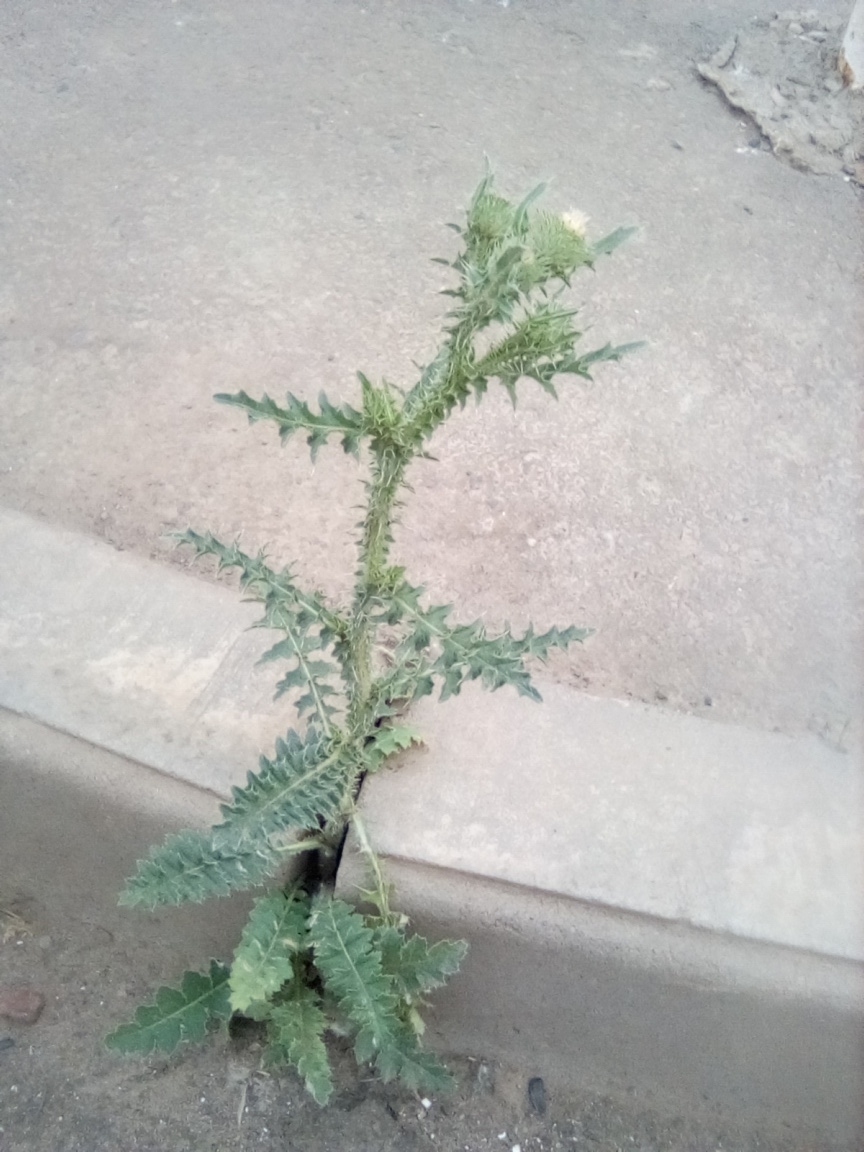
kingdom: Plantae
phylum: Tracheophyta
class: Magnoliopsida
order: Asterales
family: Asteraceae
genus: Carduus
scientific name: Carduus acanthoides
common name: Plumeless thistle
